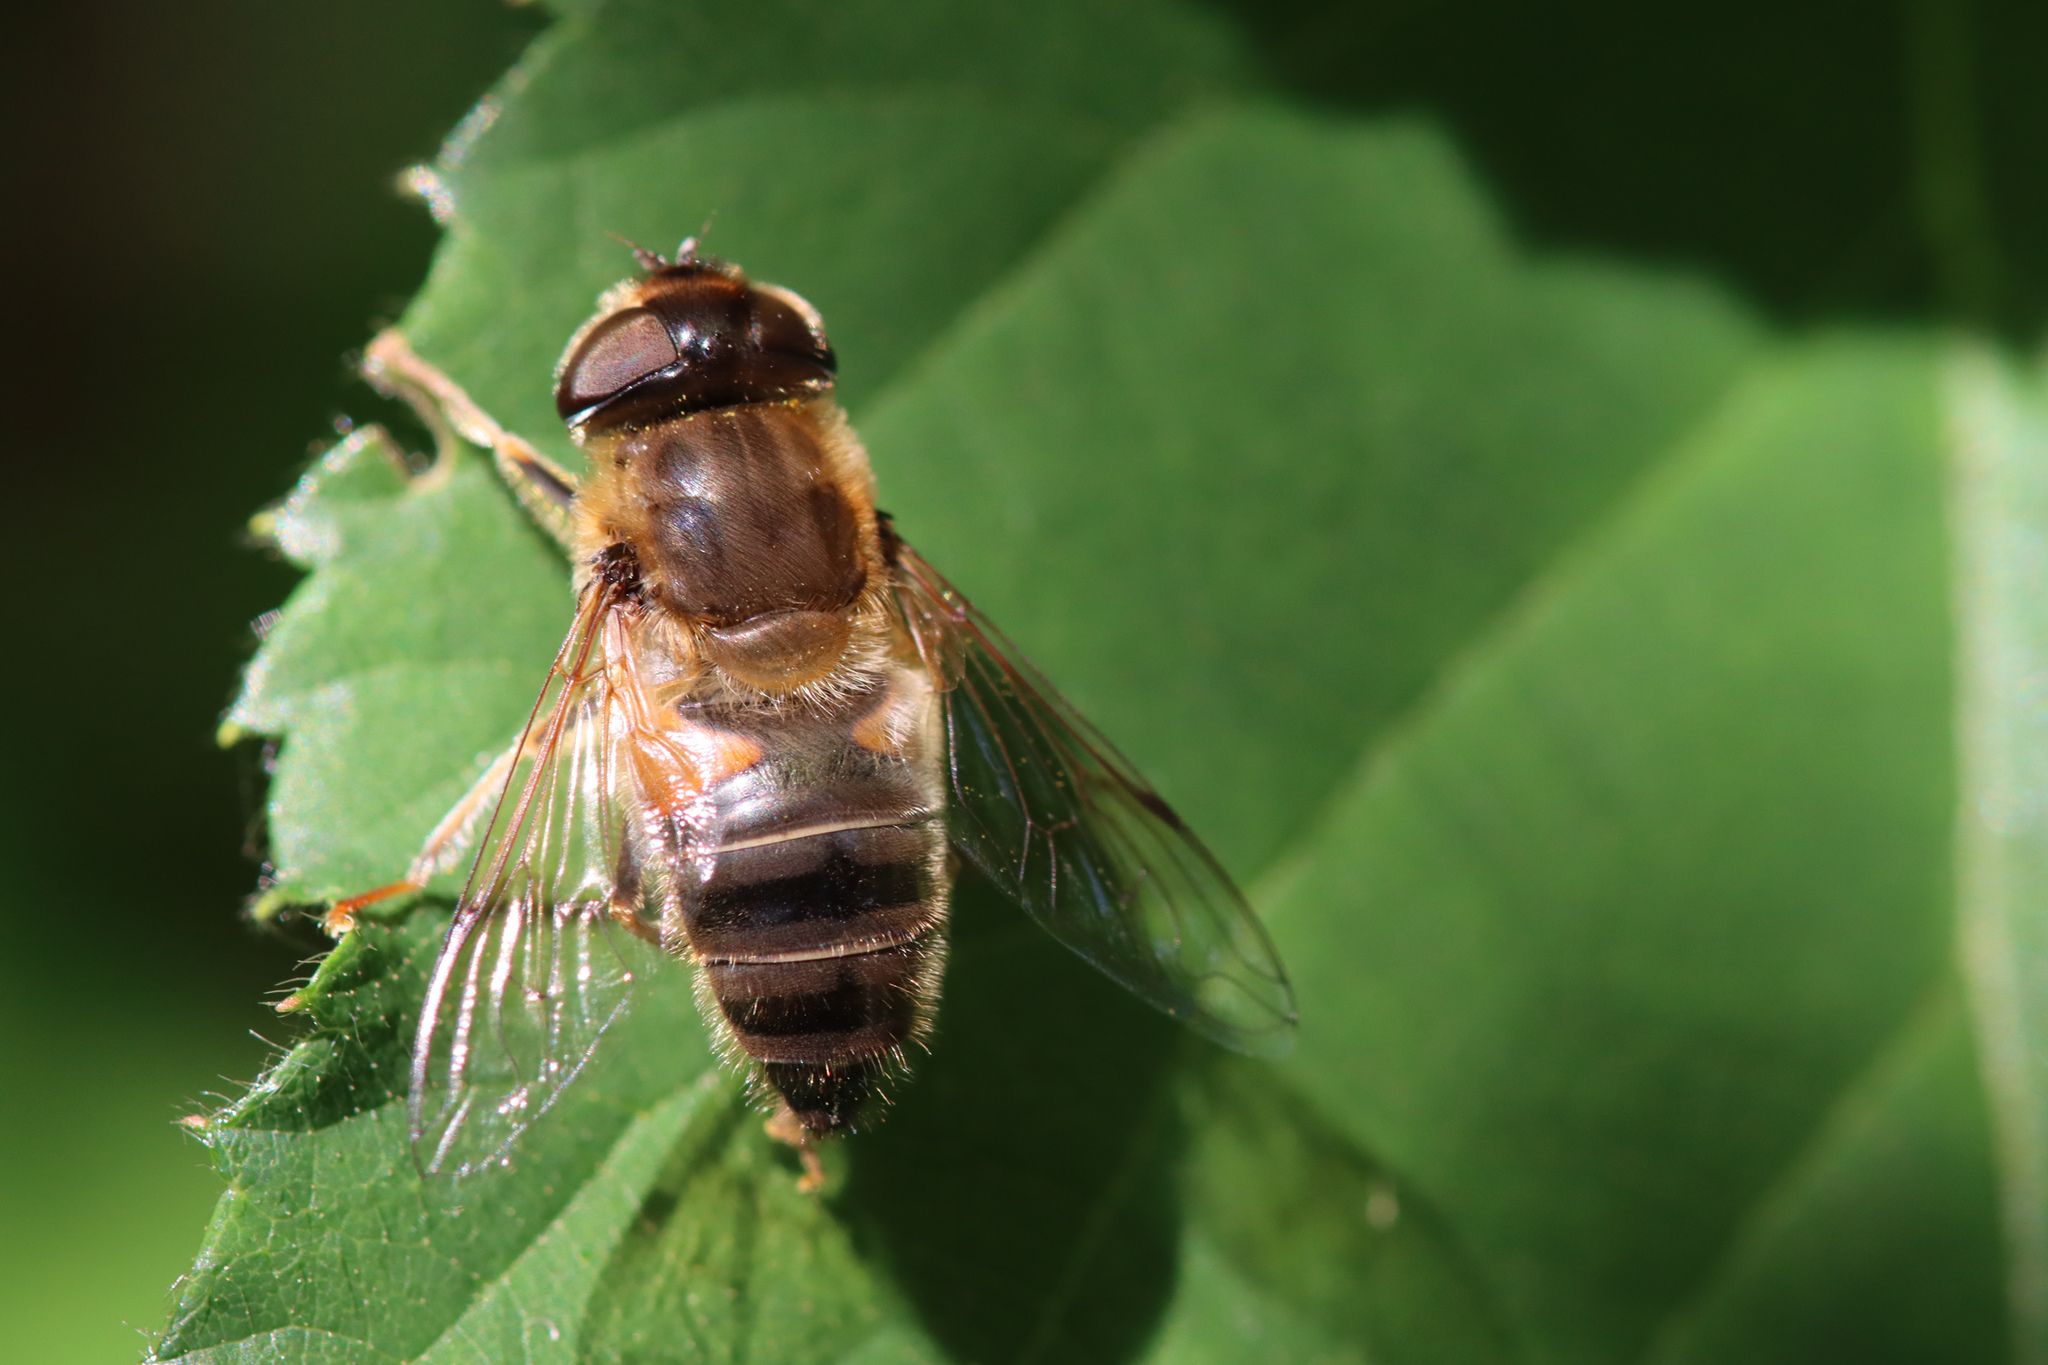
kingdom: Animalia
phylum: Arthropoda
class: Insecta
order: Diptera
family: Syrphidae
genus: Eristalis
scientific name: Eristalis pertinax
